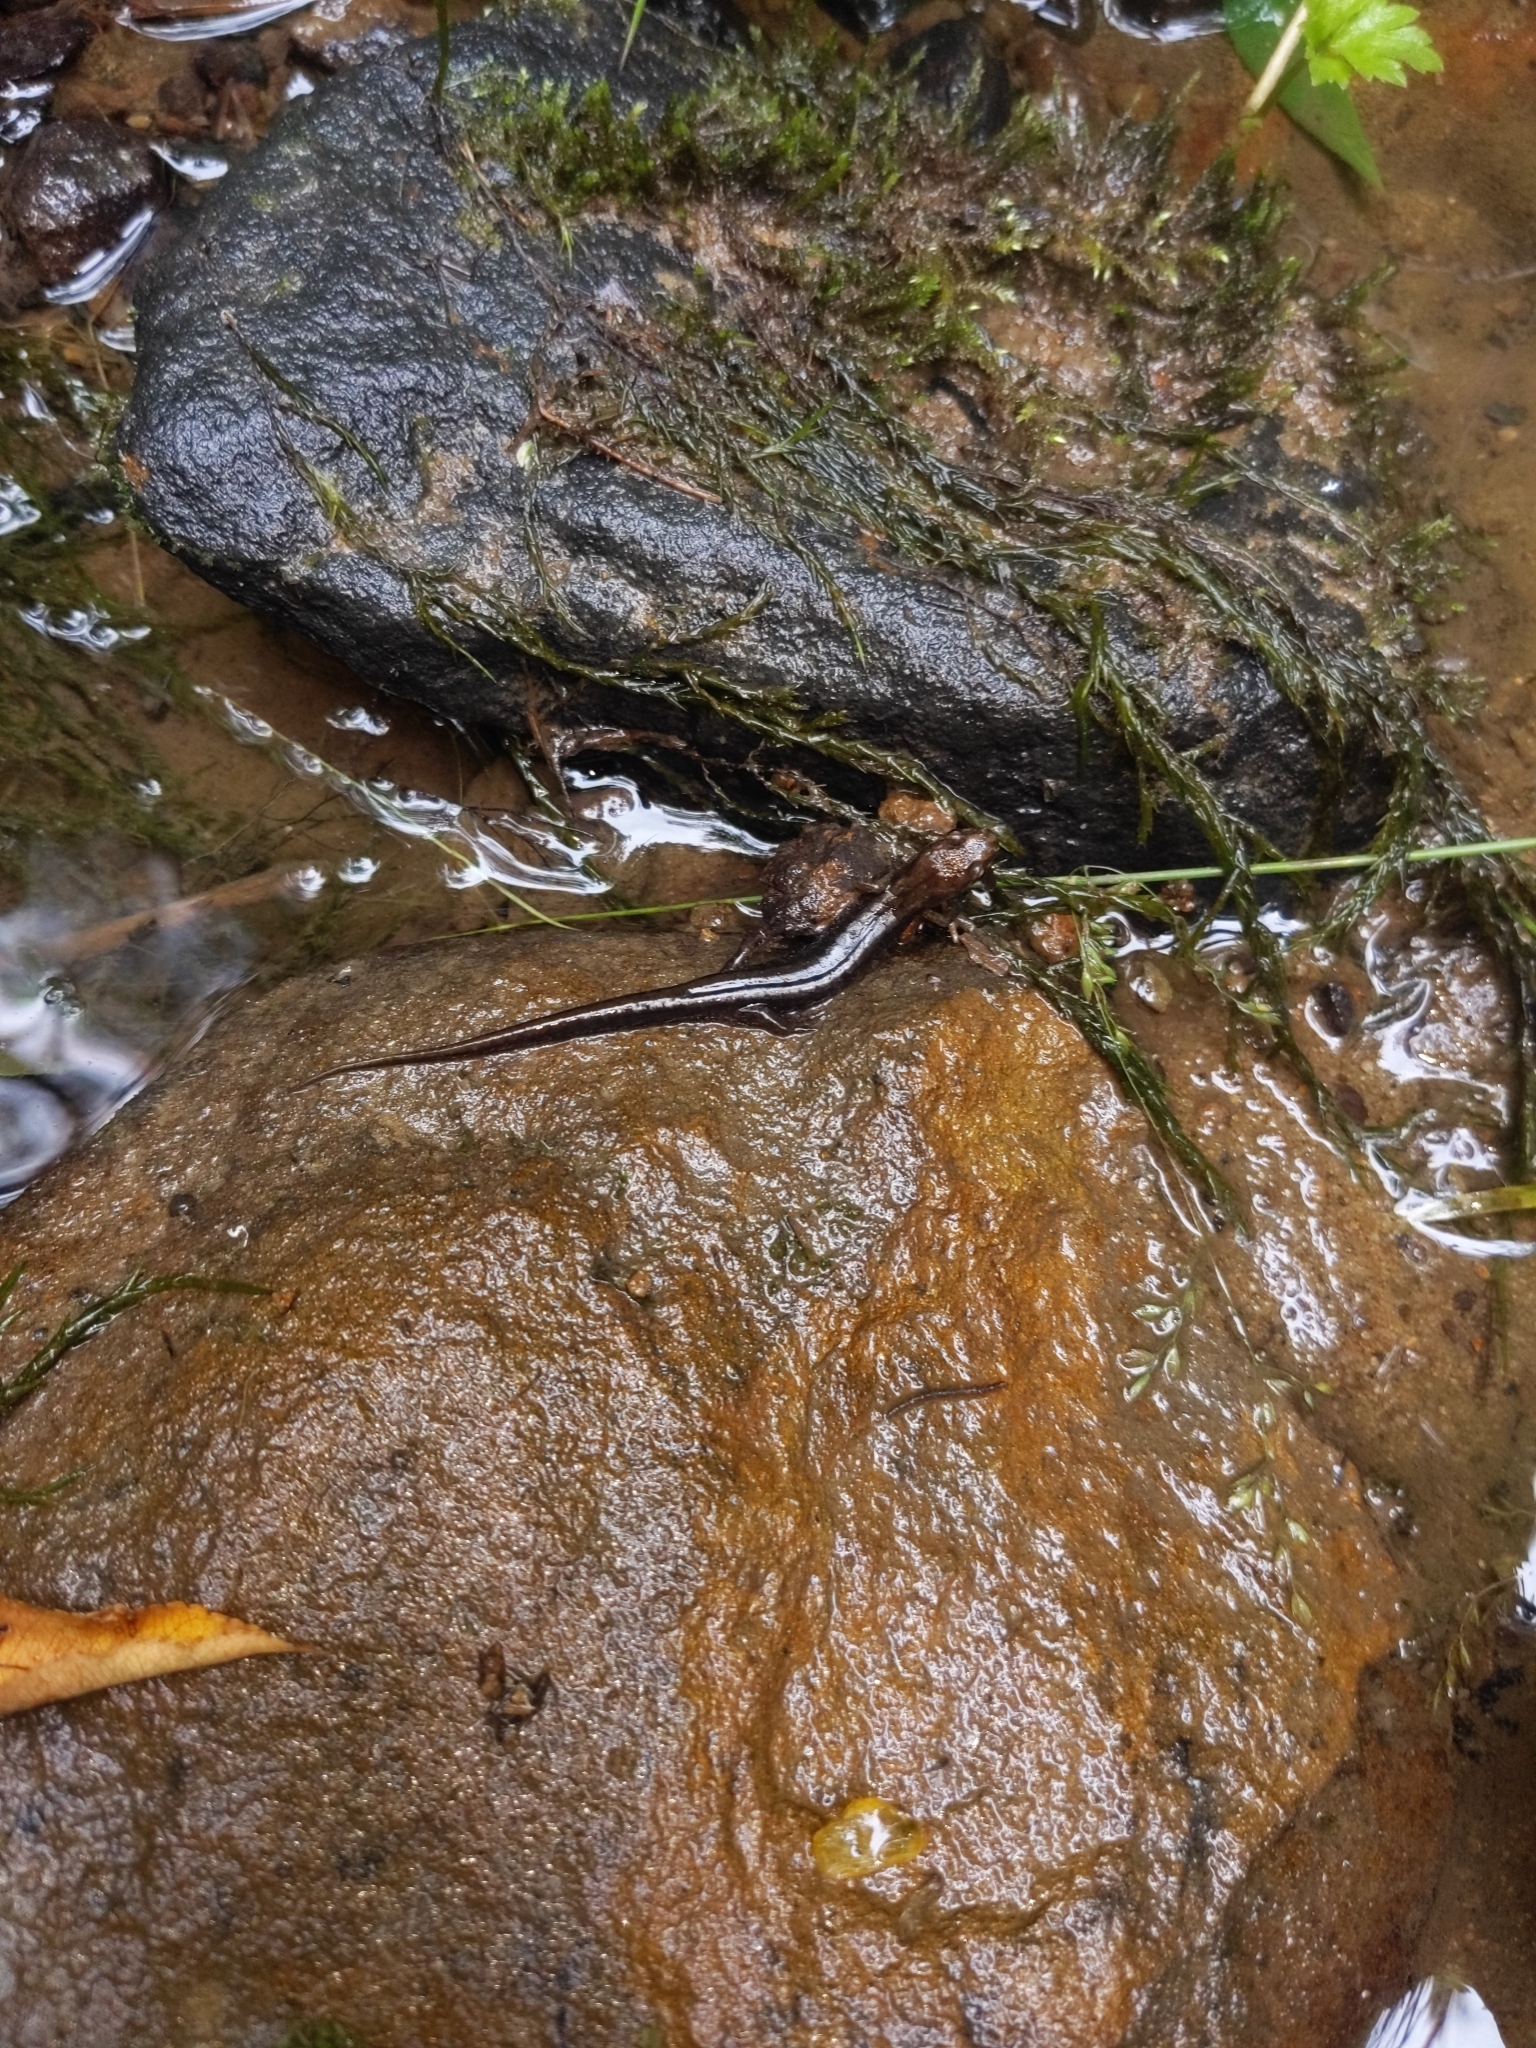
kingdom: Animalia
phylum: Chordata
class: Amphibia
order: Caudata
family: Plethodontidae
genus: Desmognathus
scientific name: Desmognathus ochrophaeus
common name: Allegheny mountain dusky salamander
